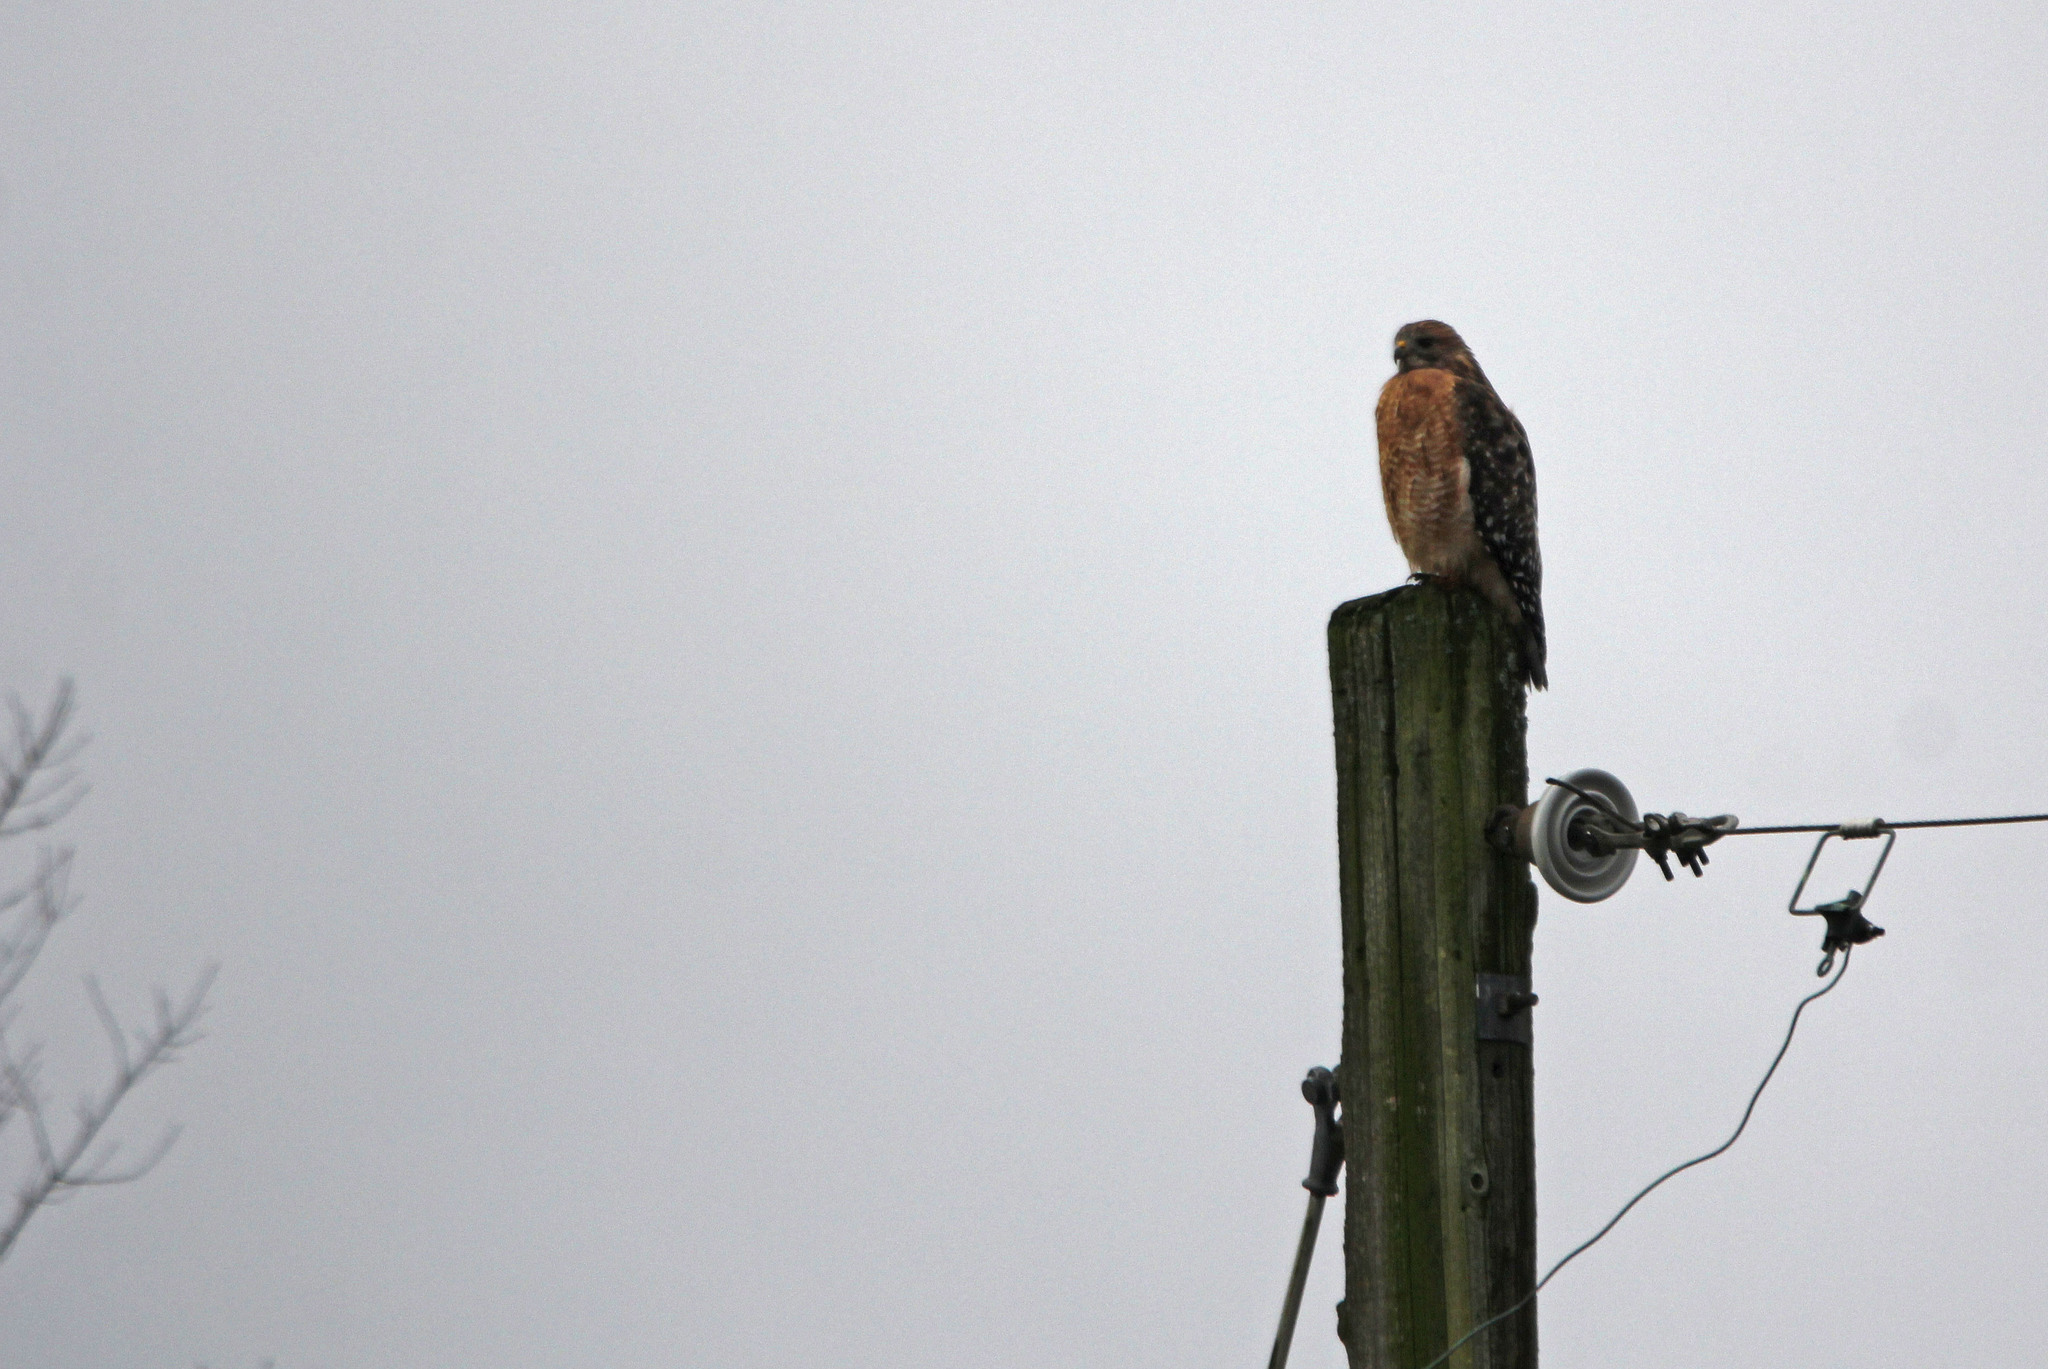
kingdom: Animalia
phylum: Chordata
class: Aves
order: Accipitriformes
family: Accipitridae
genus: Buteo
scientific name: Buteo lineatus
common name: Red-shouldered hawk
